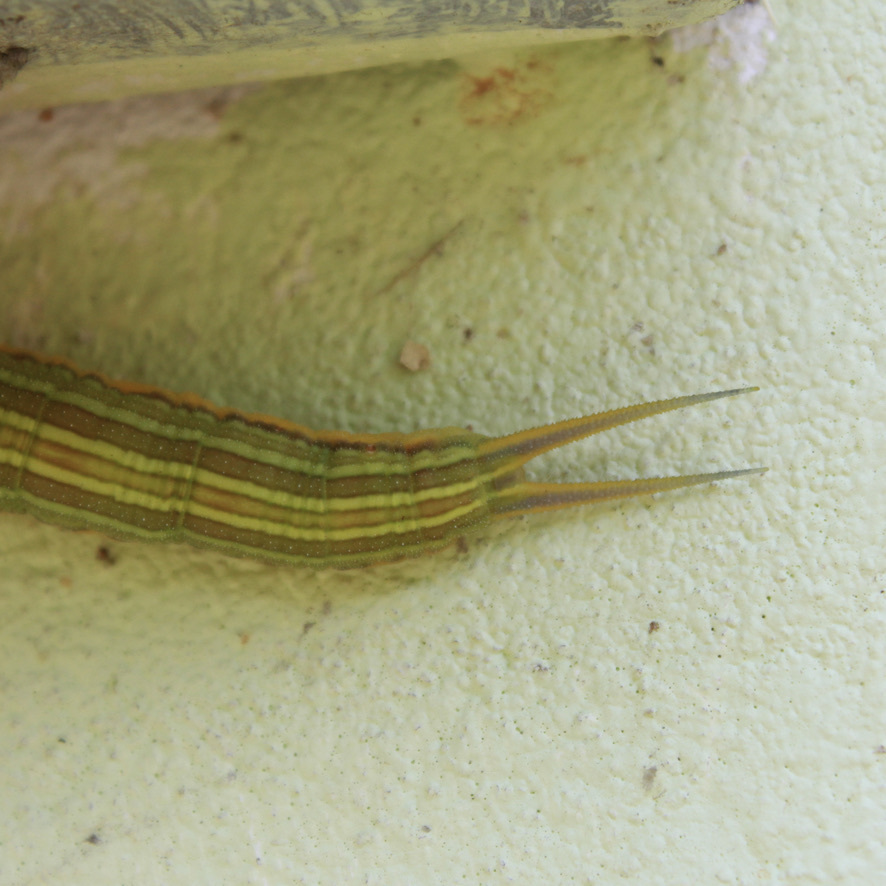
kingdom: Animalia
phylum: Arthropoda
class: Insecta
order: Lepidoptera
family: Nymphalidae
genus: Opsiphanes
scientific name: Opsiphanes cassina
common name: Split-banded owl-butterfly
